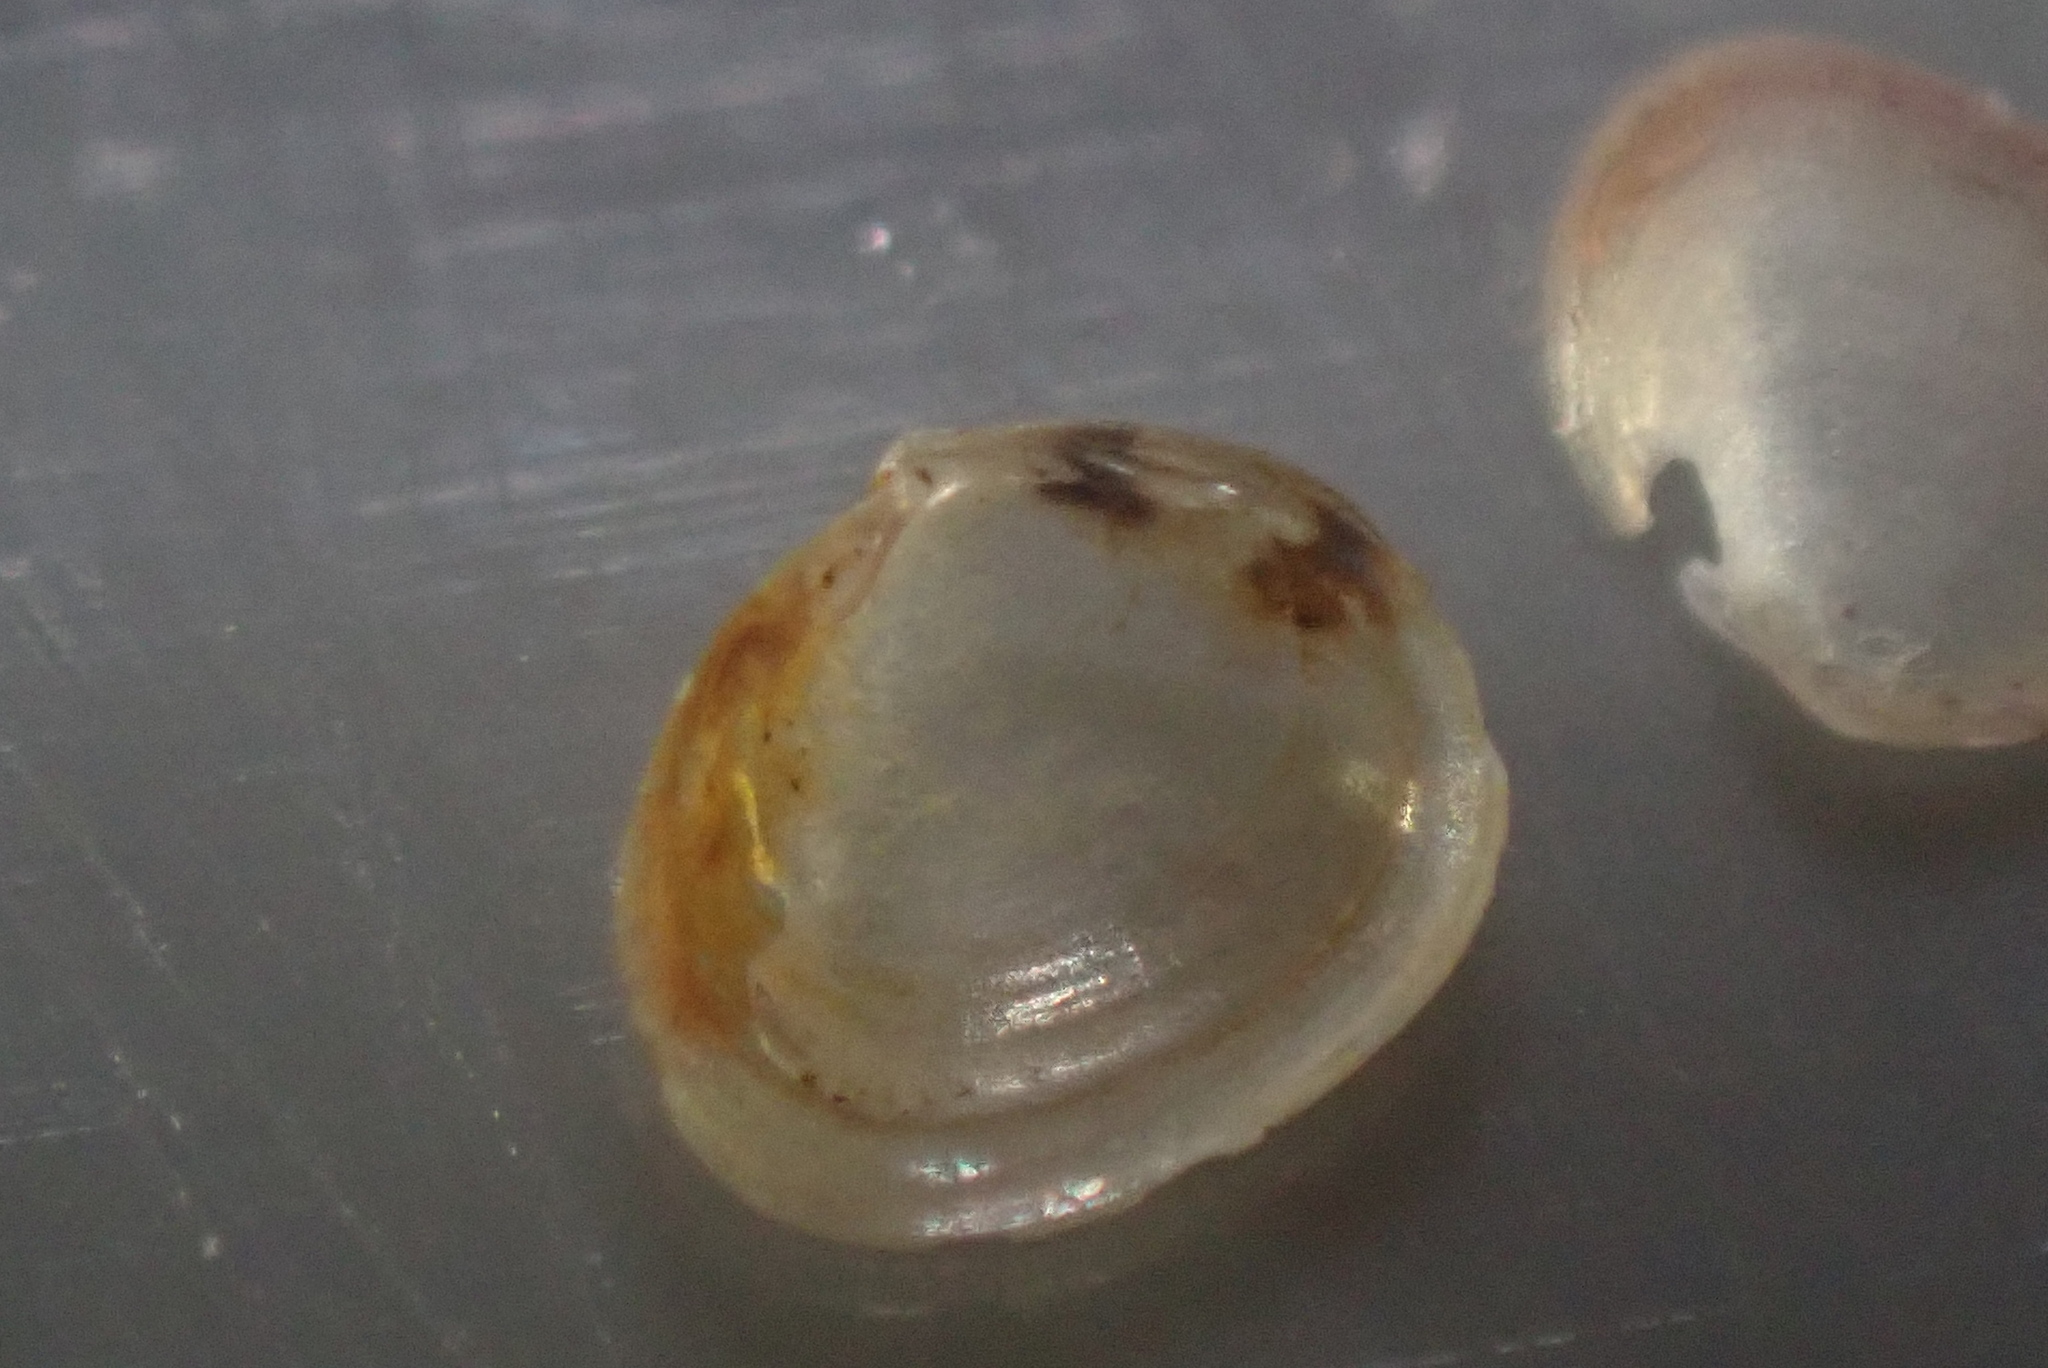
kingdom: Animalia
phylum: Mollusca
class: Bivalvia
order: Galeommatida
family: Lasaeidae
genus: Lasaea
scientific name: Lasaea hinemoa
